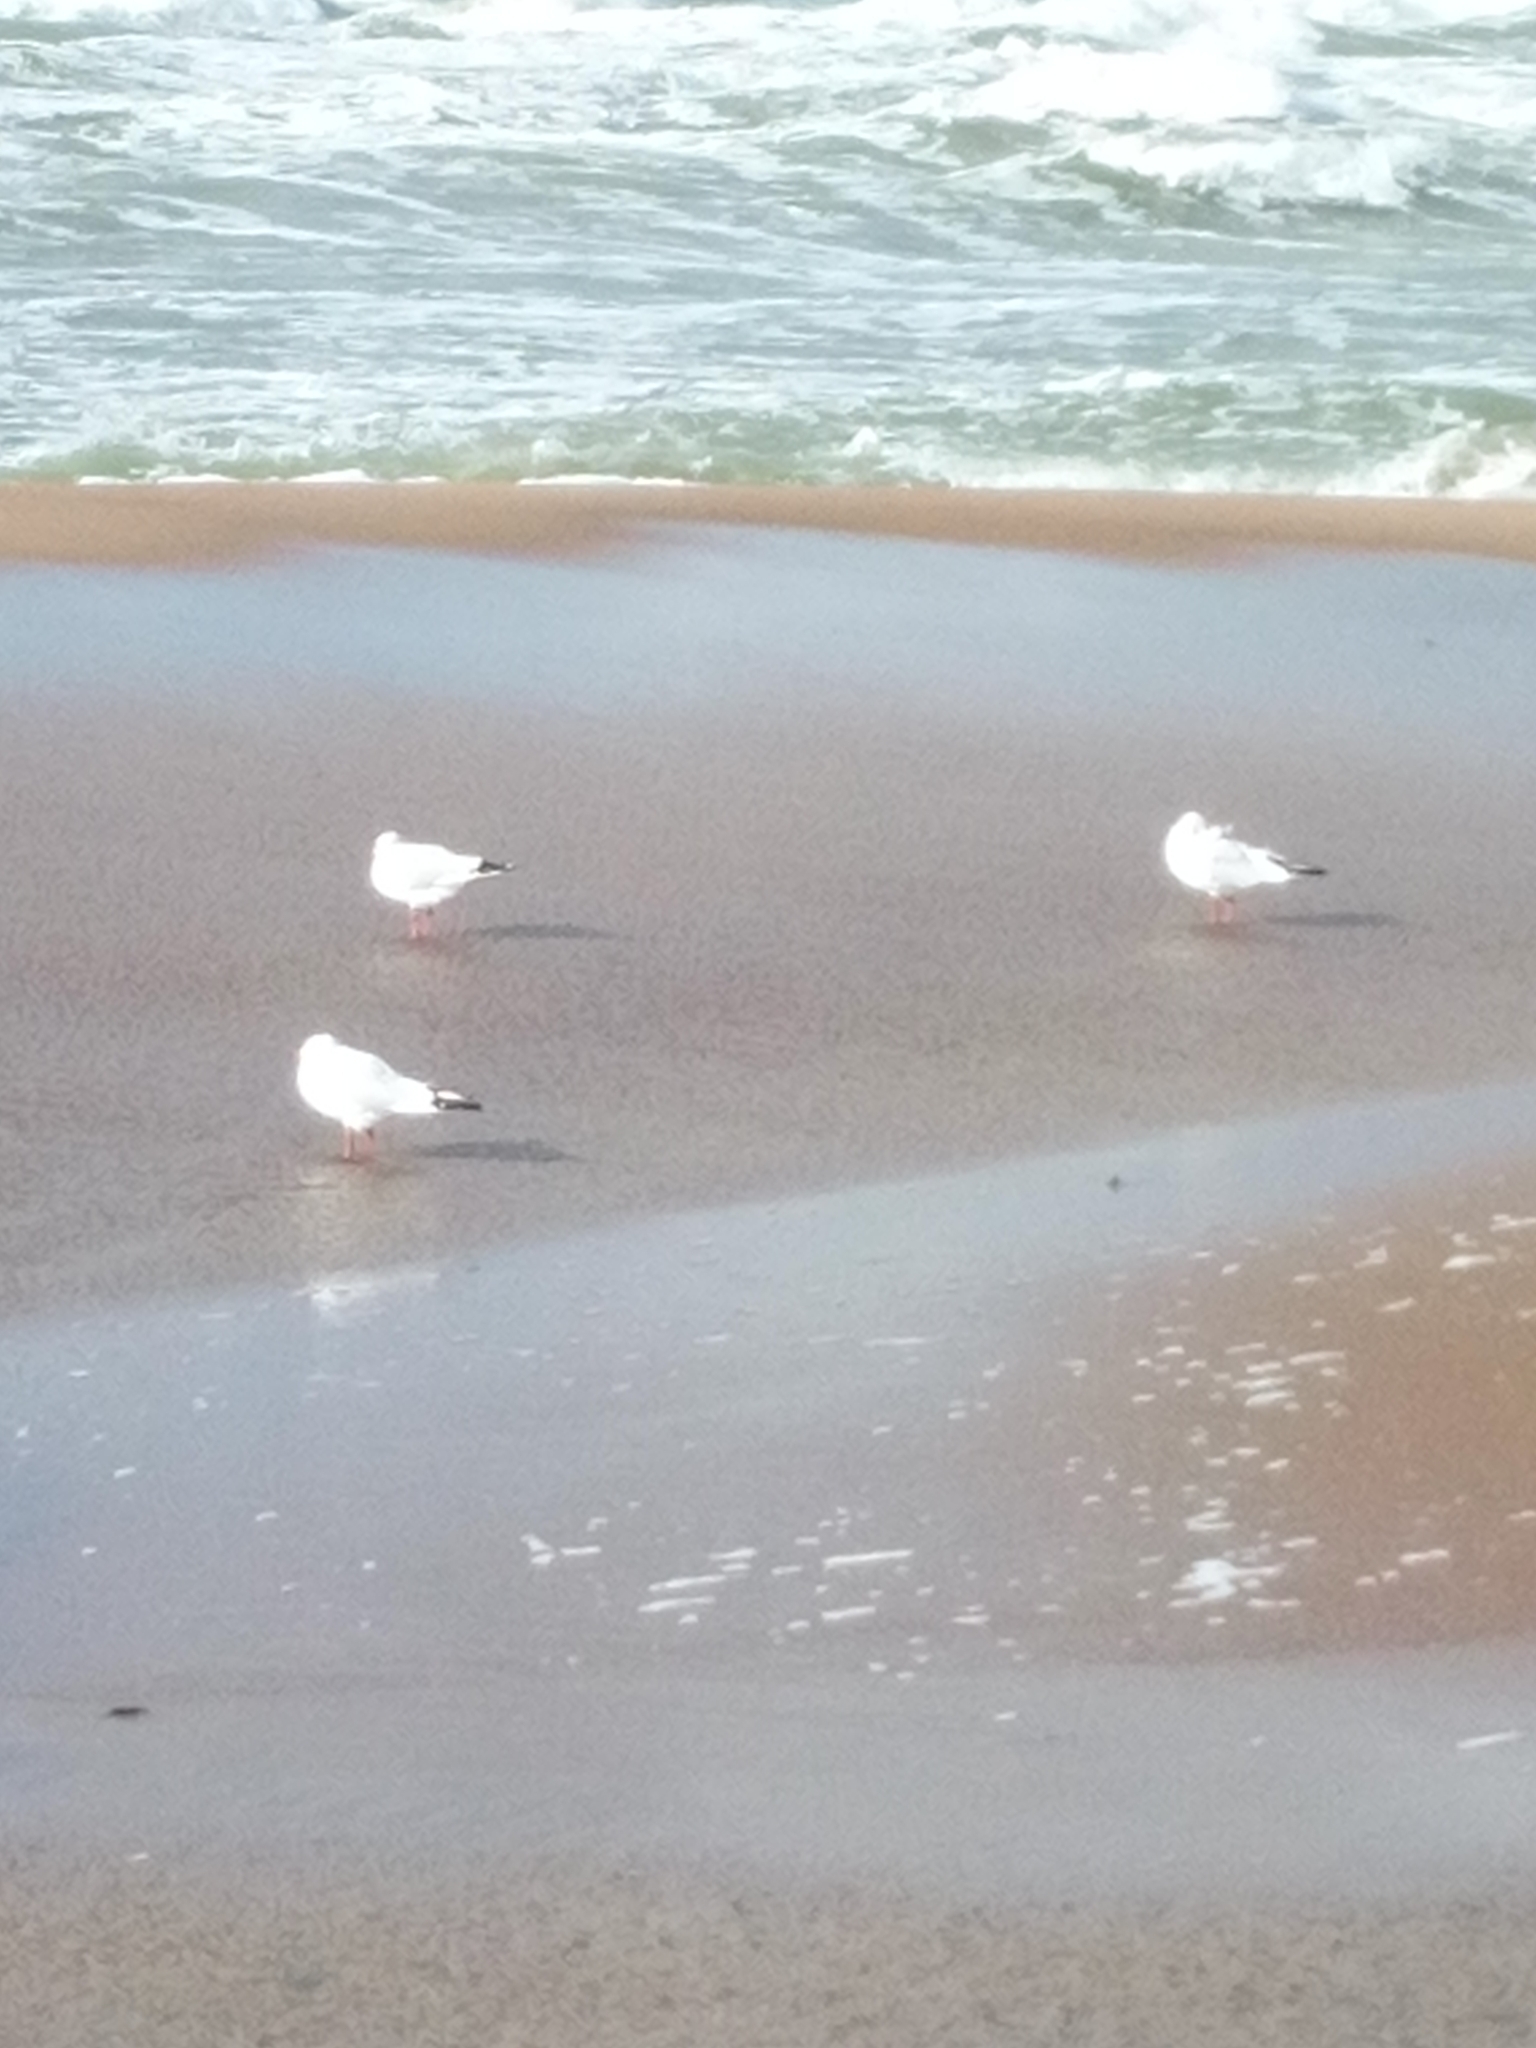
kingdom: Animalia
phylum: Chordata
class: Aves
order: Charadriiformes
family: Laridae
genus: Chroicocephalus
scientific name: Chroicocephalus ridibundus
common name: Black-headed gull
